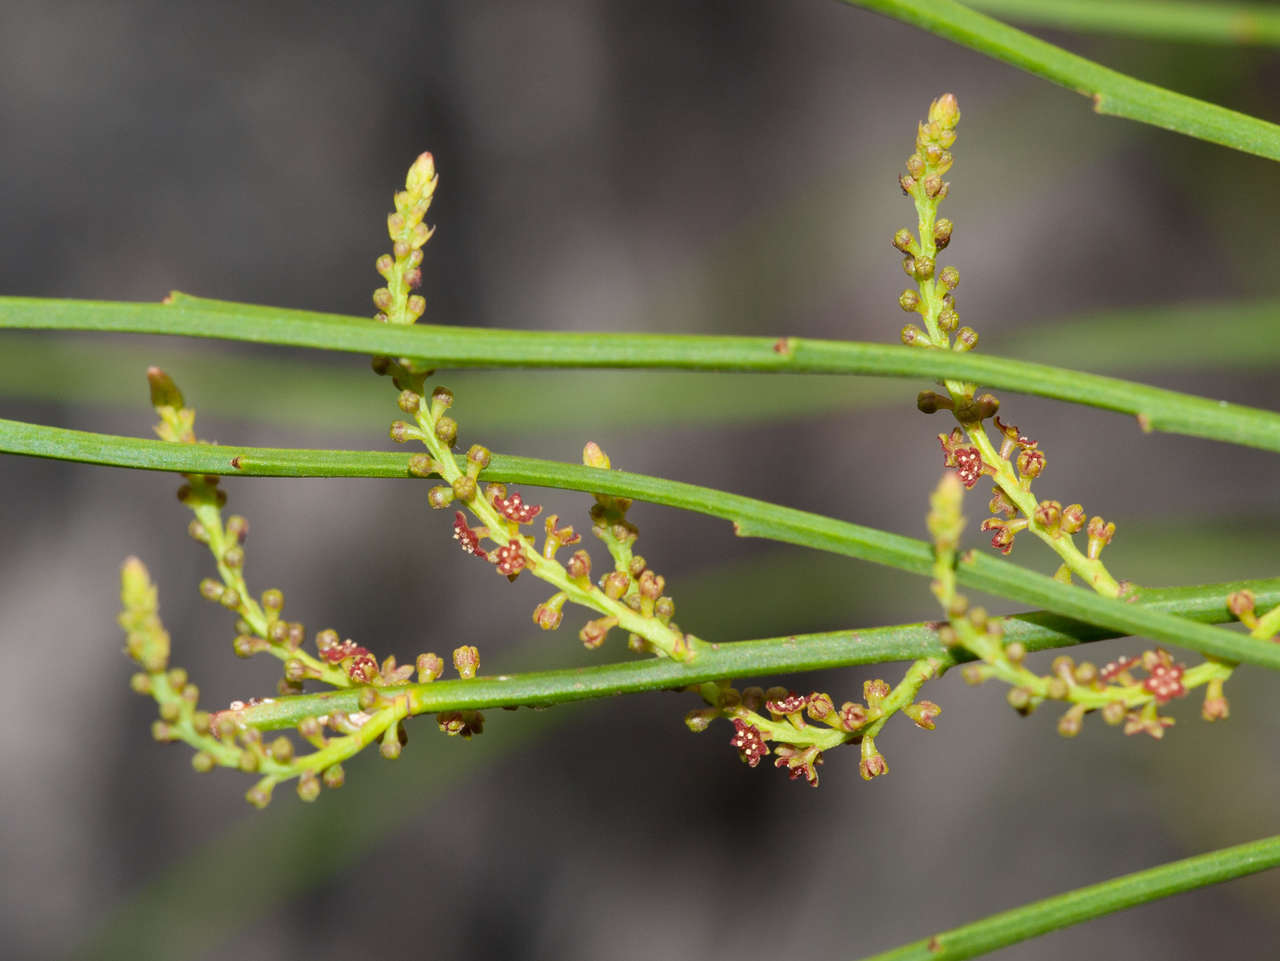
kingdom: Plantae
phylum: Tracheophyta
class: Magnoliopsida
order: Santalales
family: Amphorogynaceae
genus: Leptomeria
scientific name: Leptomeria acida
